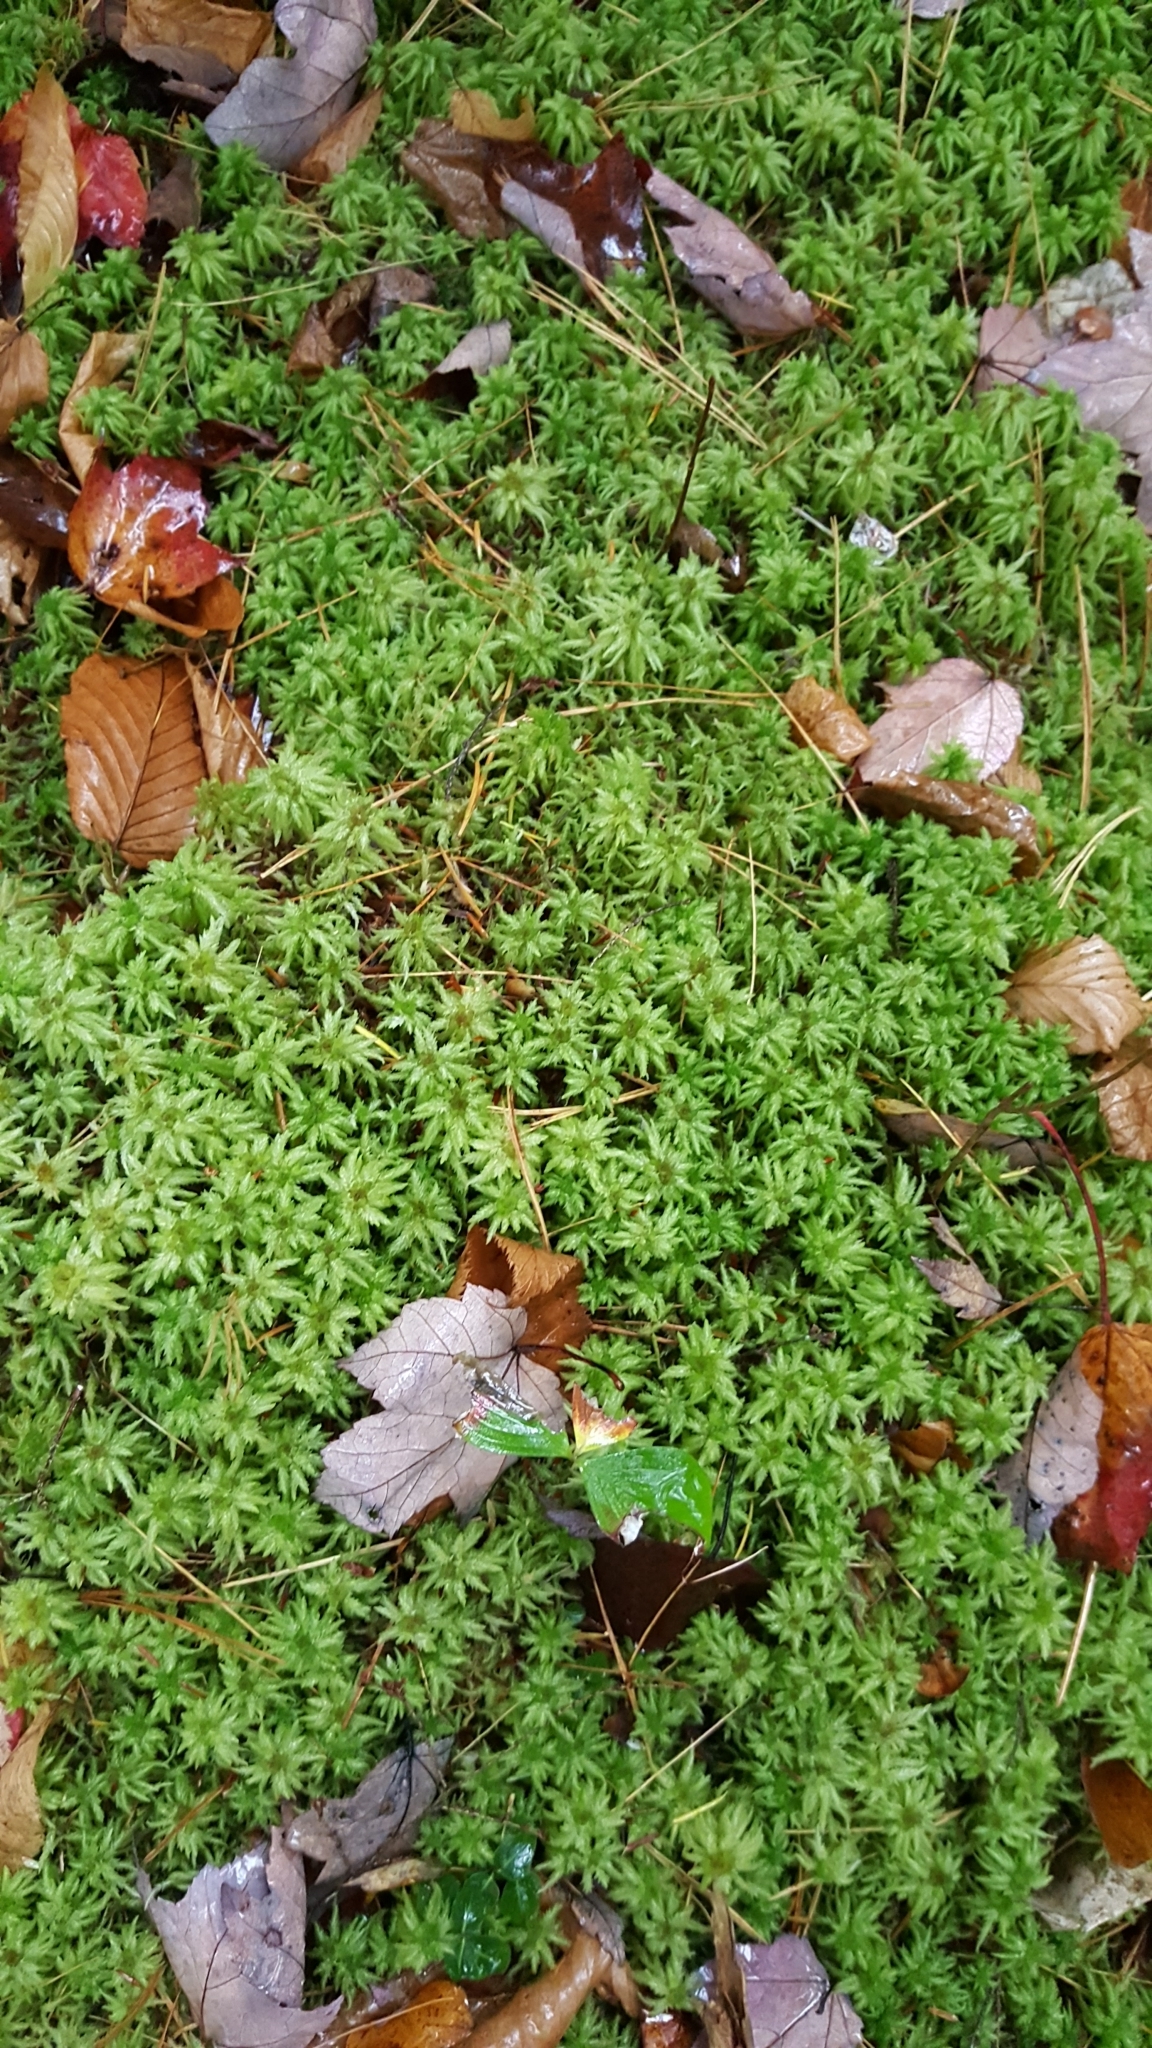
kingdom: Plantae
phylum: Bryophyta
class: Sphagnopsida
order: Sphagnales
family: Sphagnaceae
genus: Sphagnum
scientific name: Sphagnum
